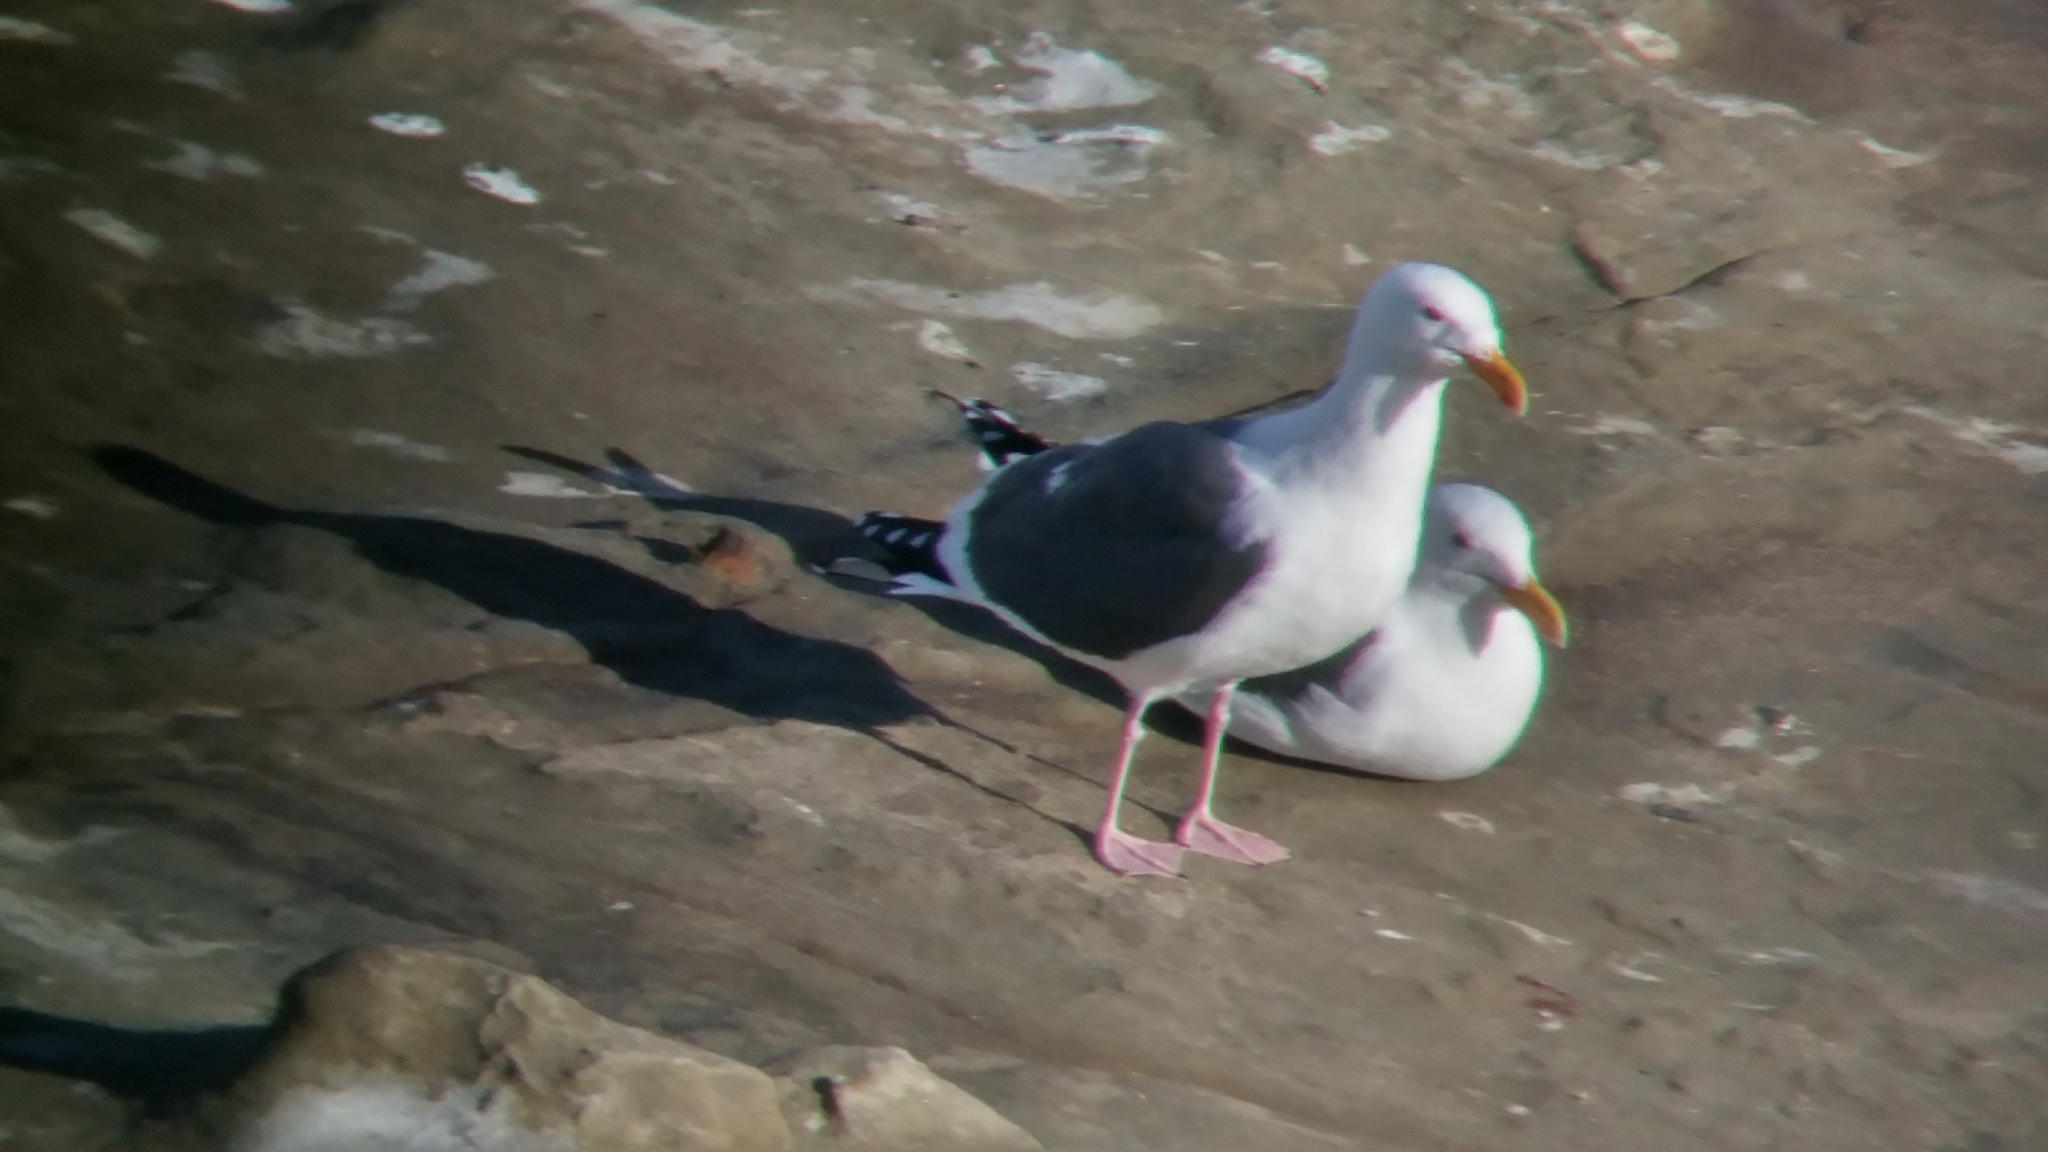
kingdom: Animalia
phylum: Chordata
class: Aves
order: Charadriiformes
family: Laridae
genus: Larus
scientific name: Larus occidentalis
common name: Western gull
